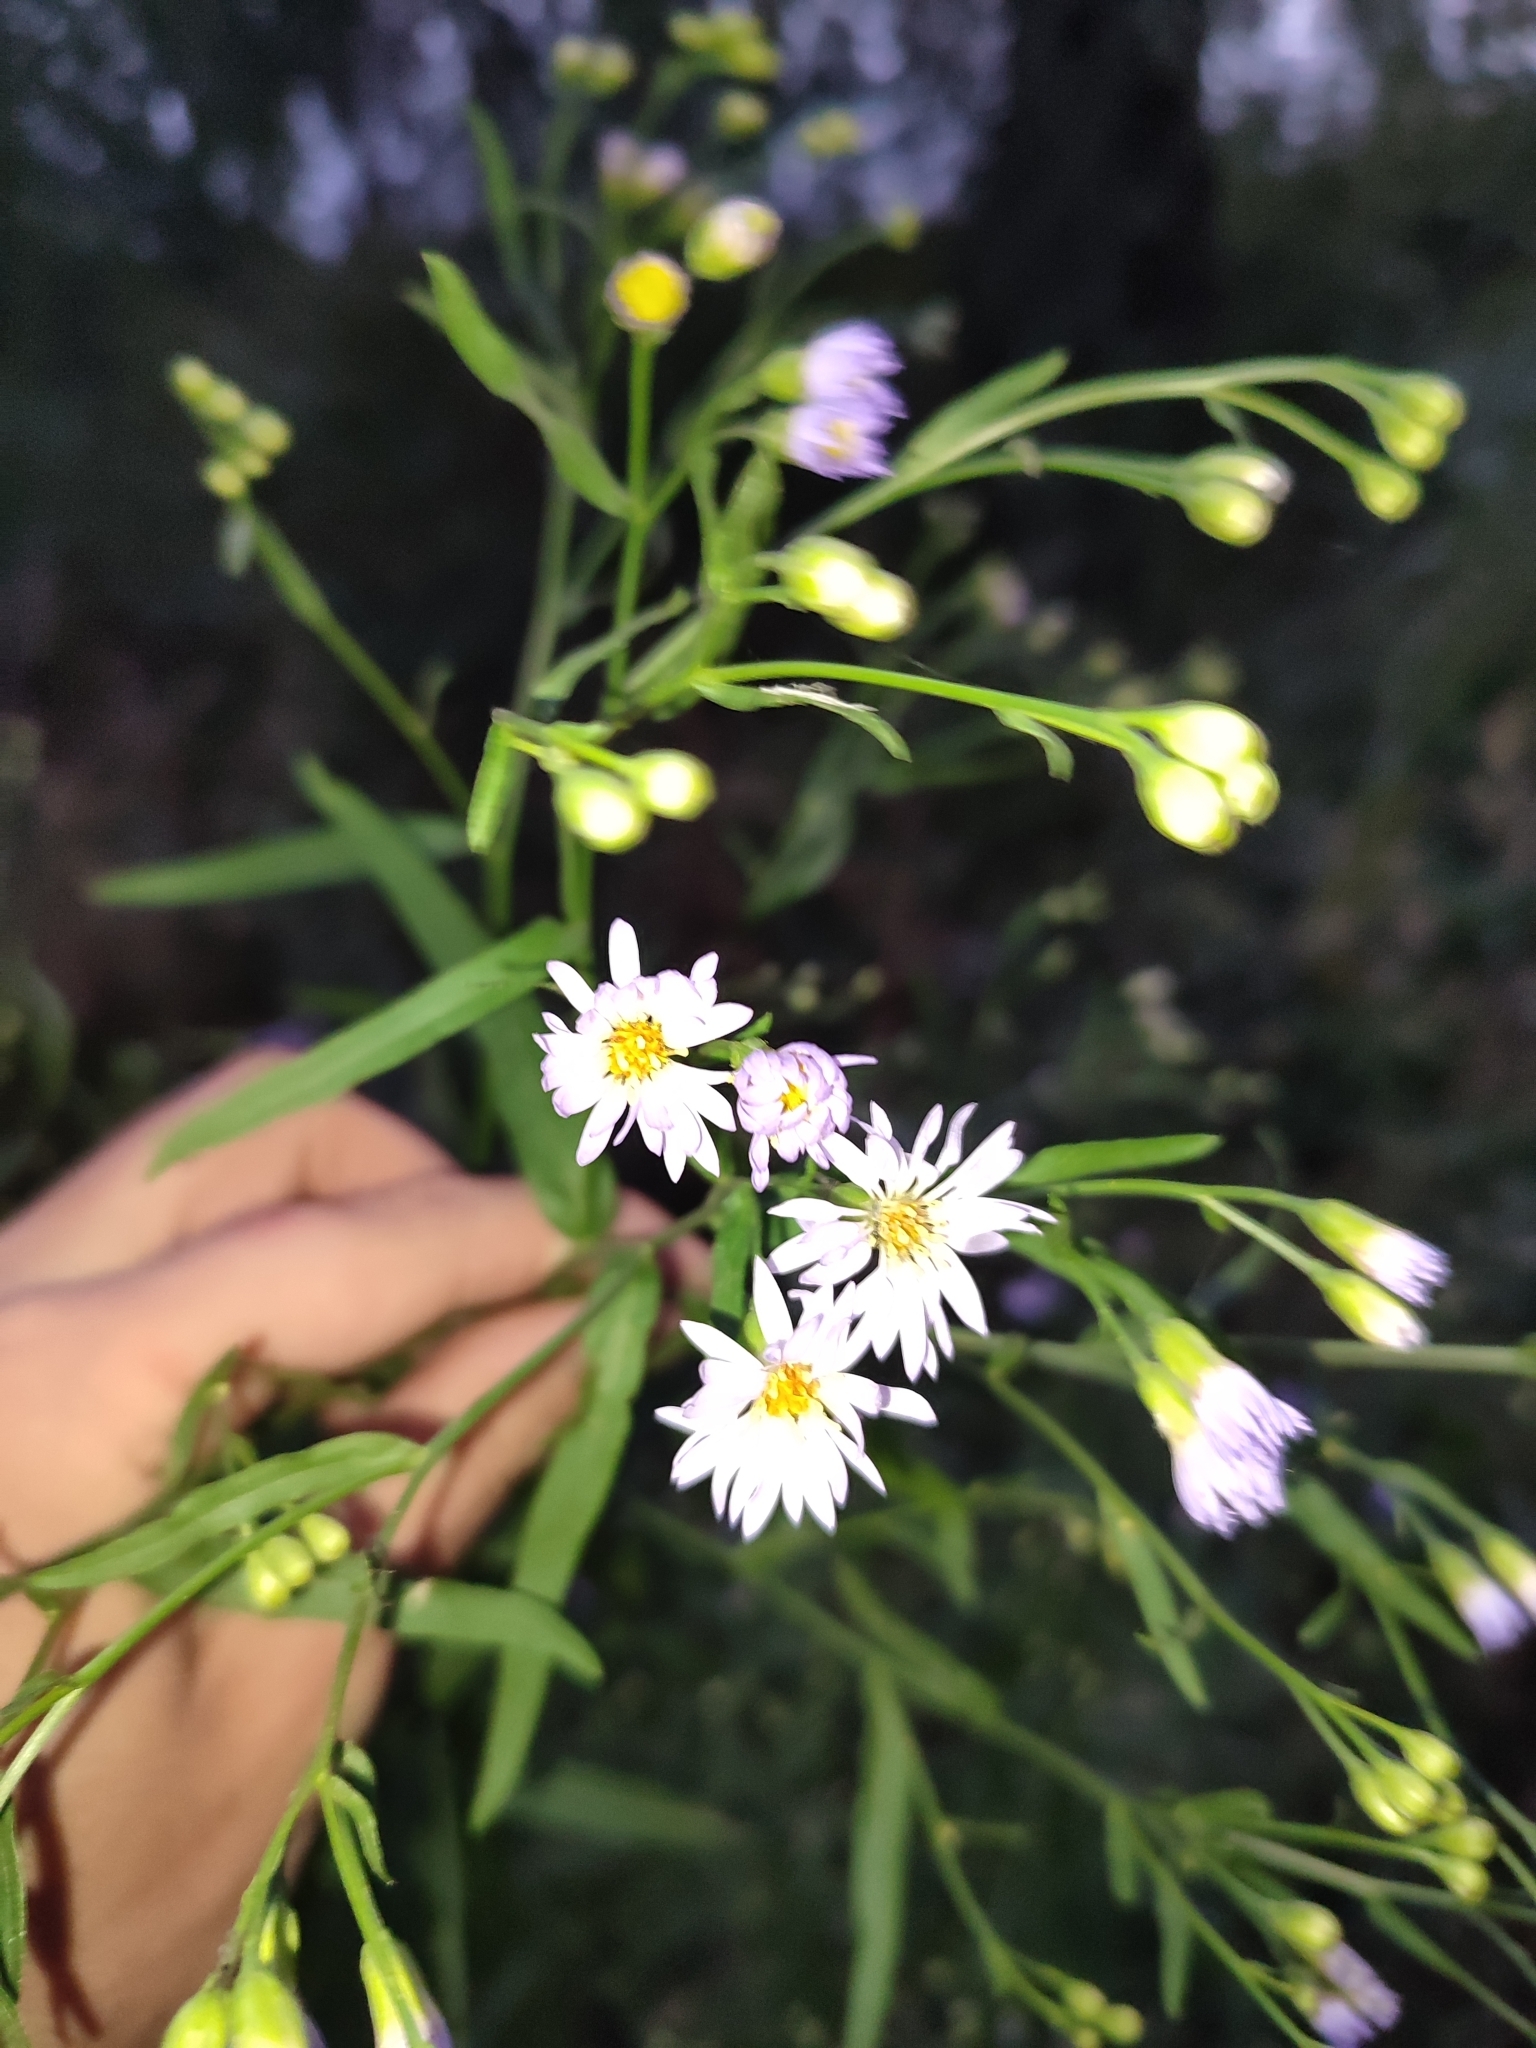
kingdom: Plantae
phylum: Tracheophyta
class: Magnoliopsida
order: Asterales
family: Asteraceae
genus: Tripolium
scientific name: Tripolium pannonicum
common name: Sea aster
